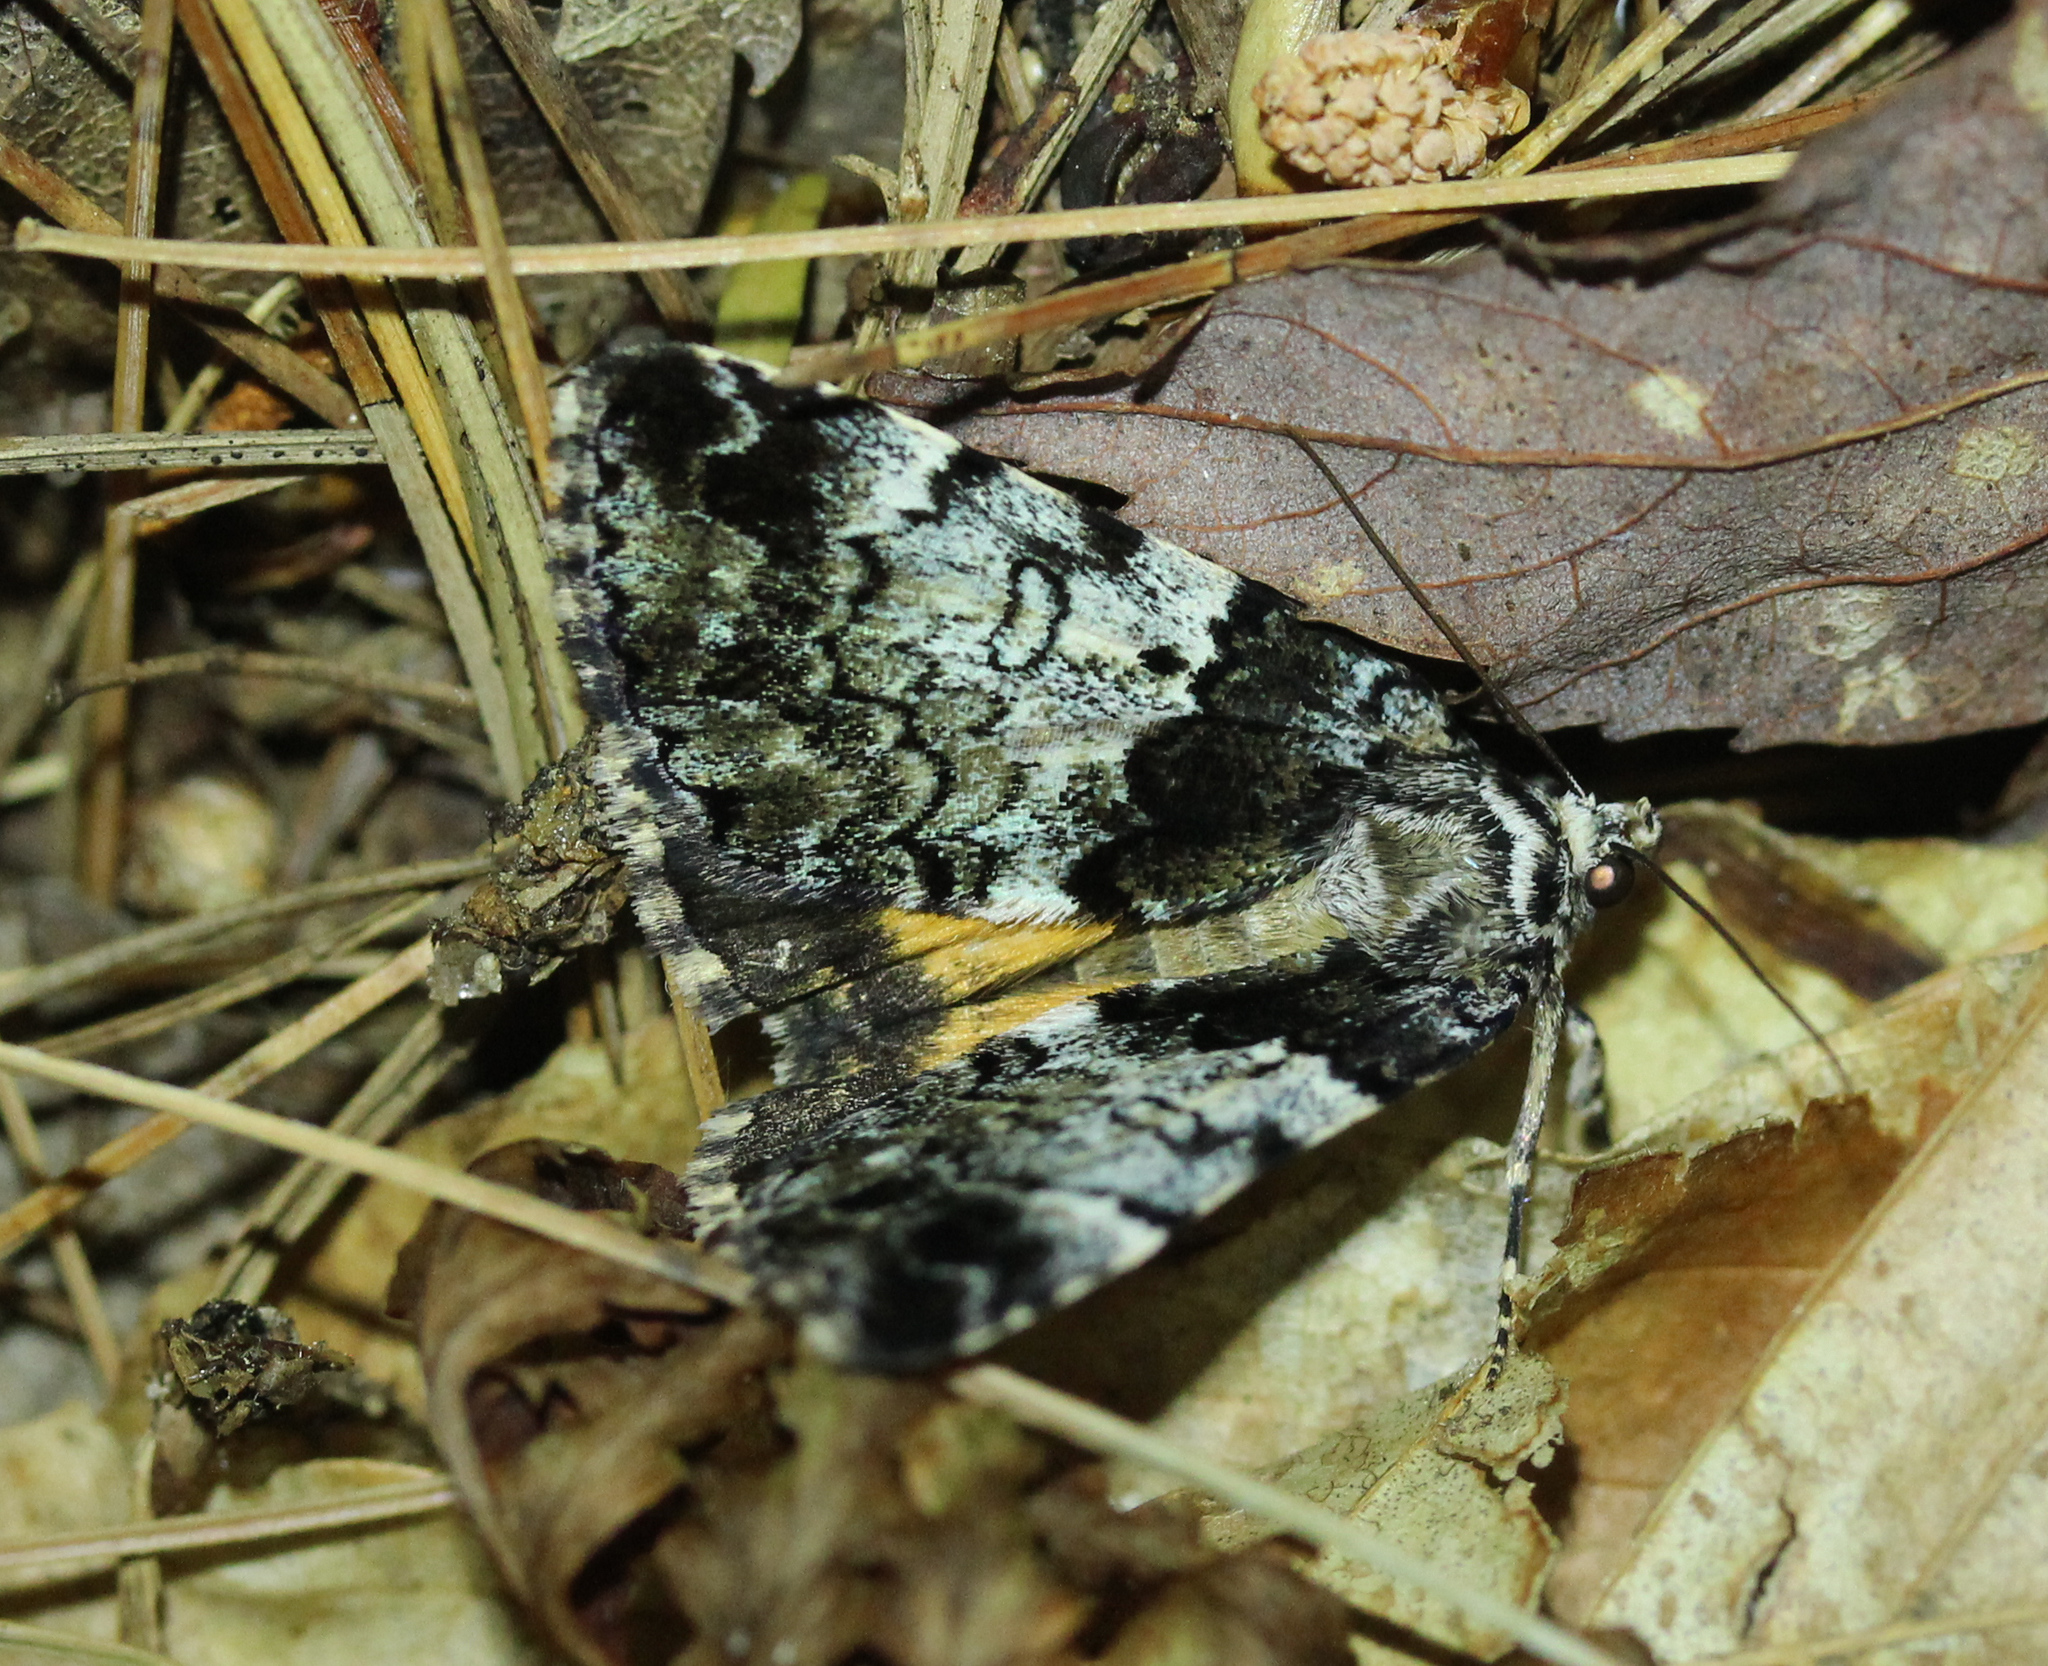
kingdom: Animalia
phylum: Arthropoda
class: Insecta
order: Lepidoptera
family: Erebidae
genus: Allotria
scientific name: Allotria elonympha
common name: False underwing
